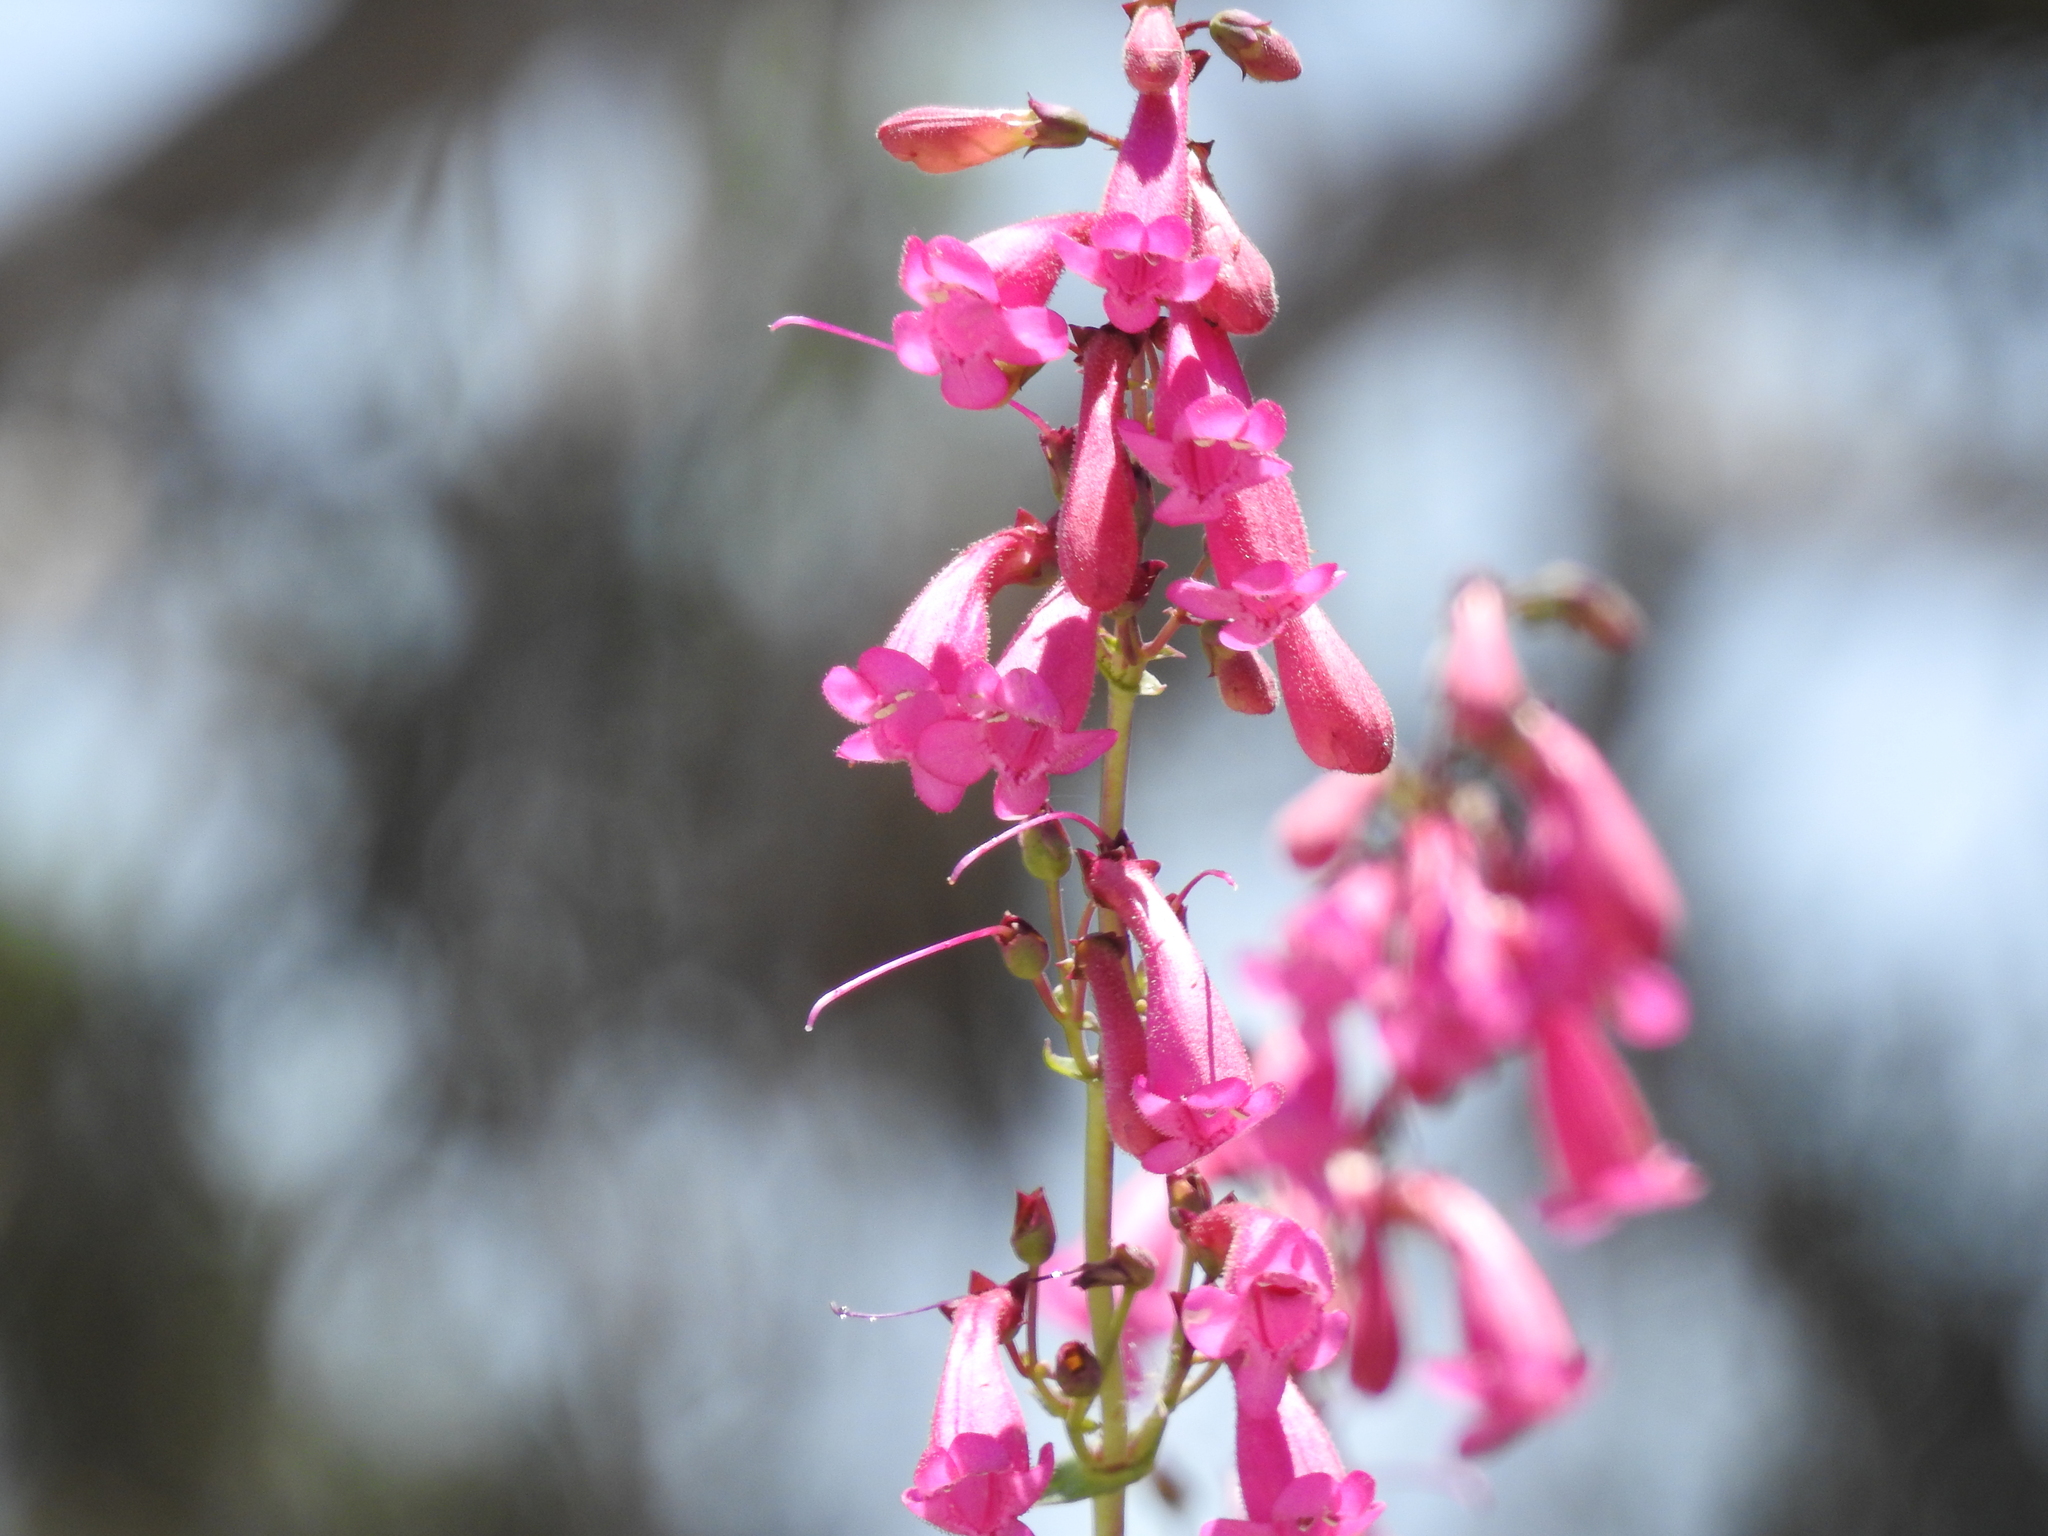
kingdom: Plantae
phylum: Tracheophyta
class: Magnoliopsida
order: Lamiales
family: Plantaginaceae
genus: Penstemon
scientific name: Penstemon pseudospectabilis
